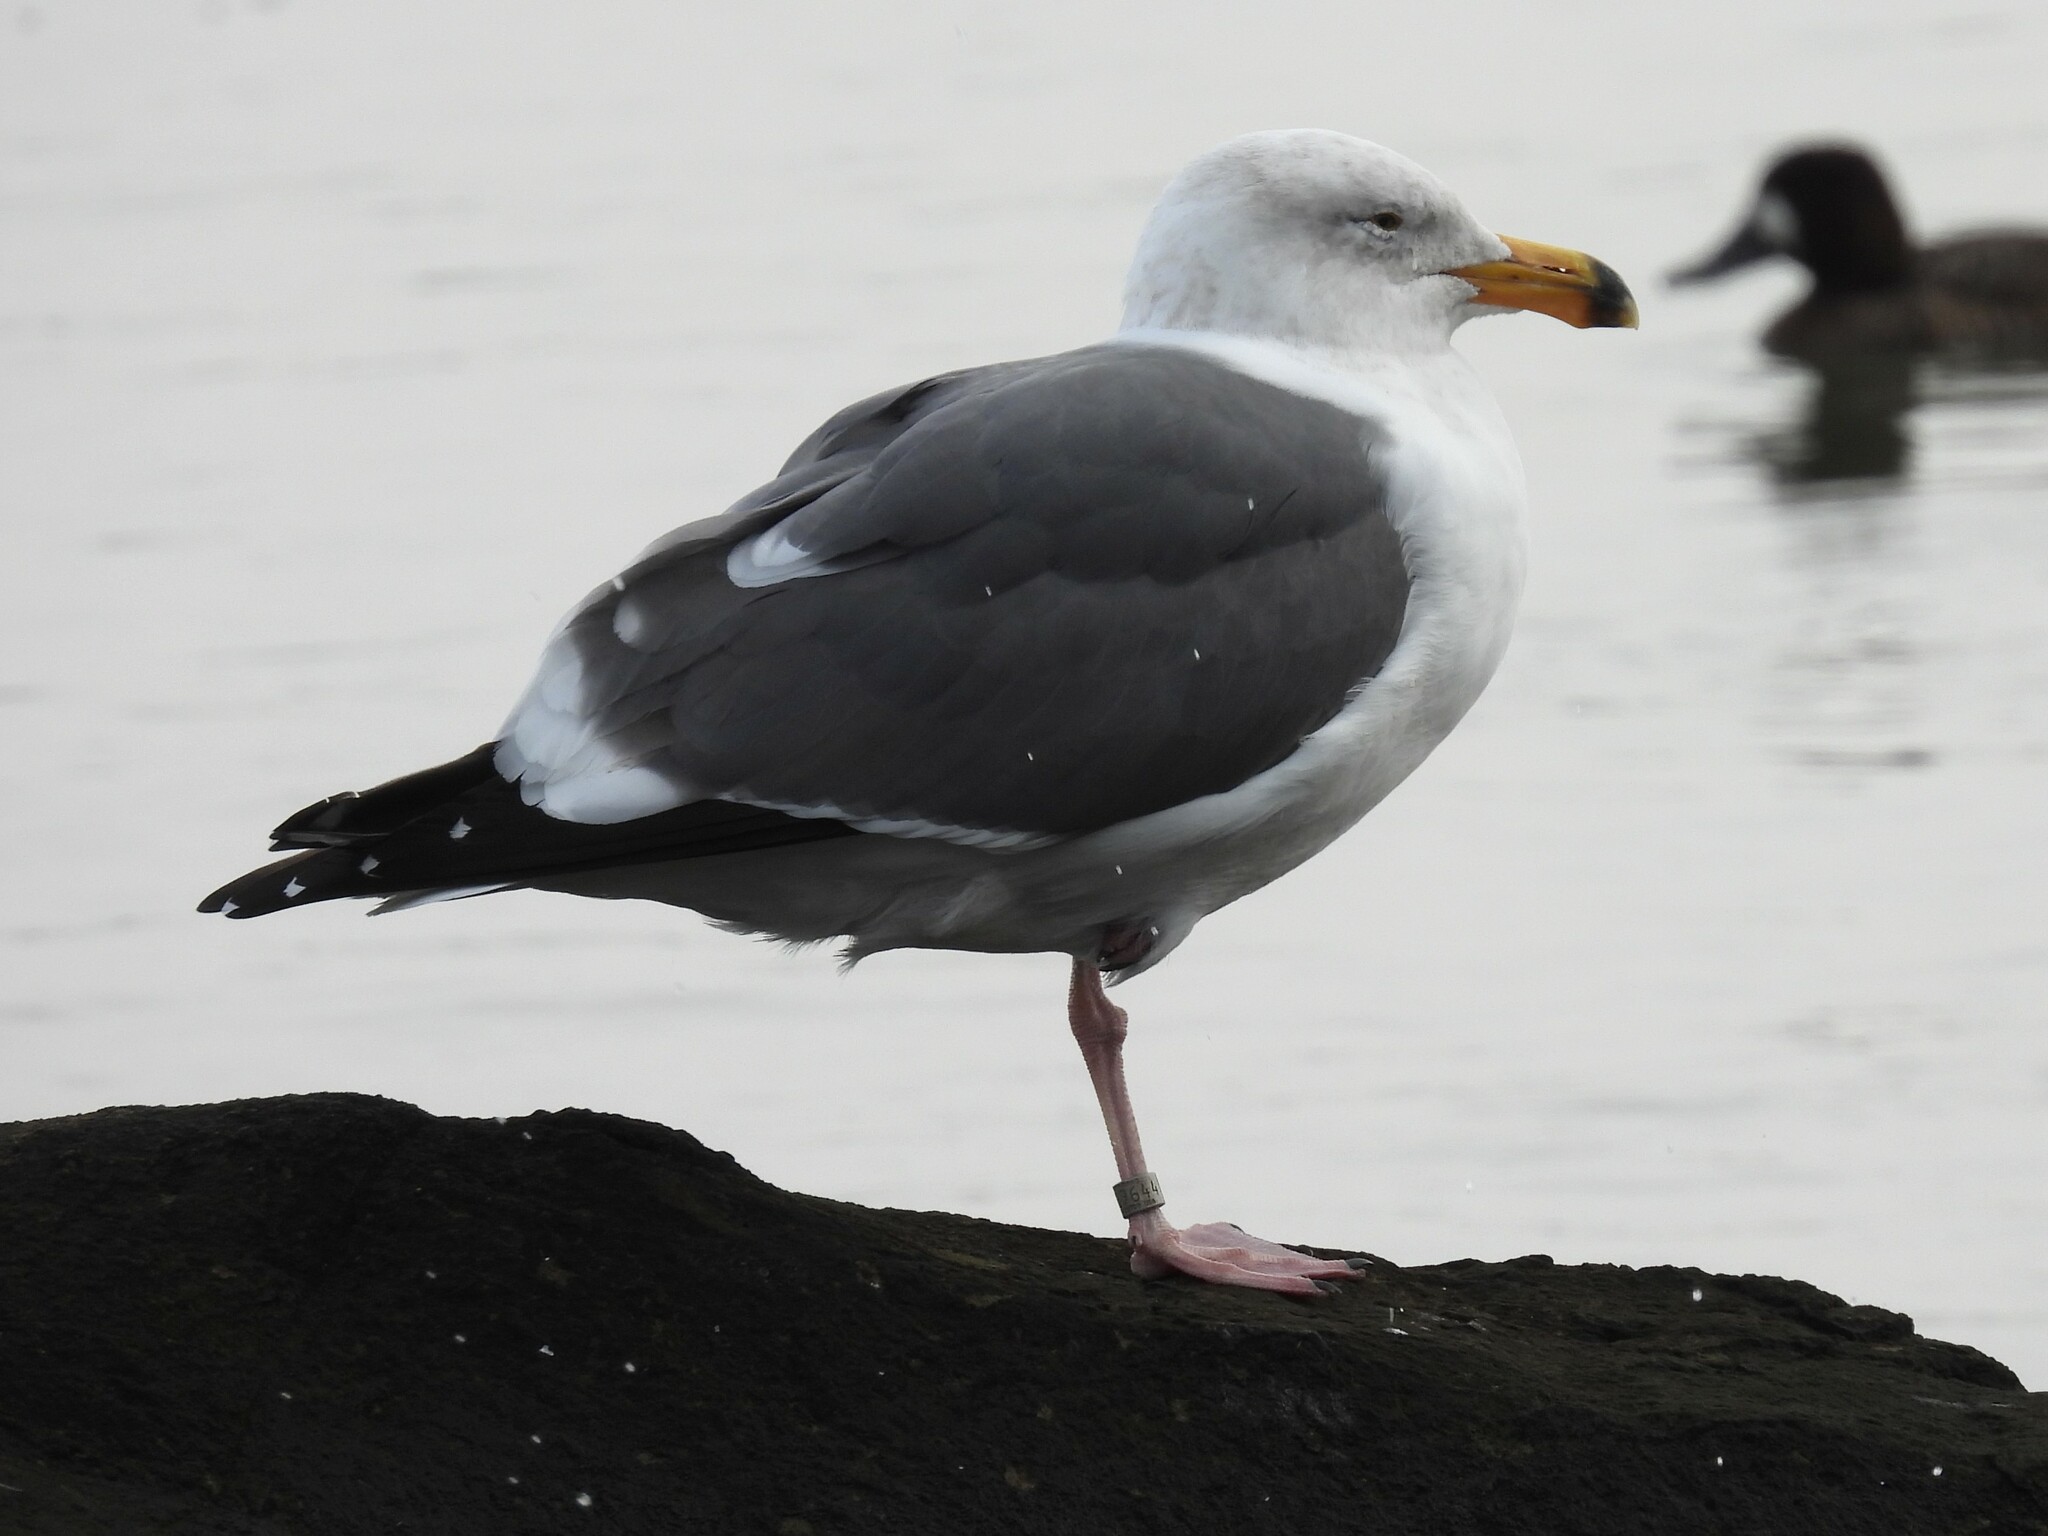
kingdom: Animalia
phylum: Chordata
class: Aves
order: Charadriiformes
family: Laridae
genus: Larus
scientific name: Larus occidentalis
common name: Western gull
